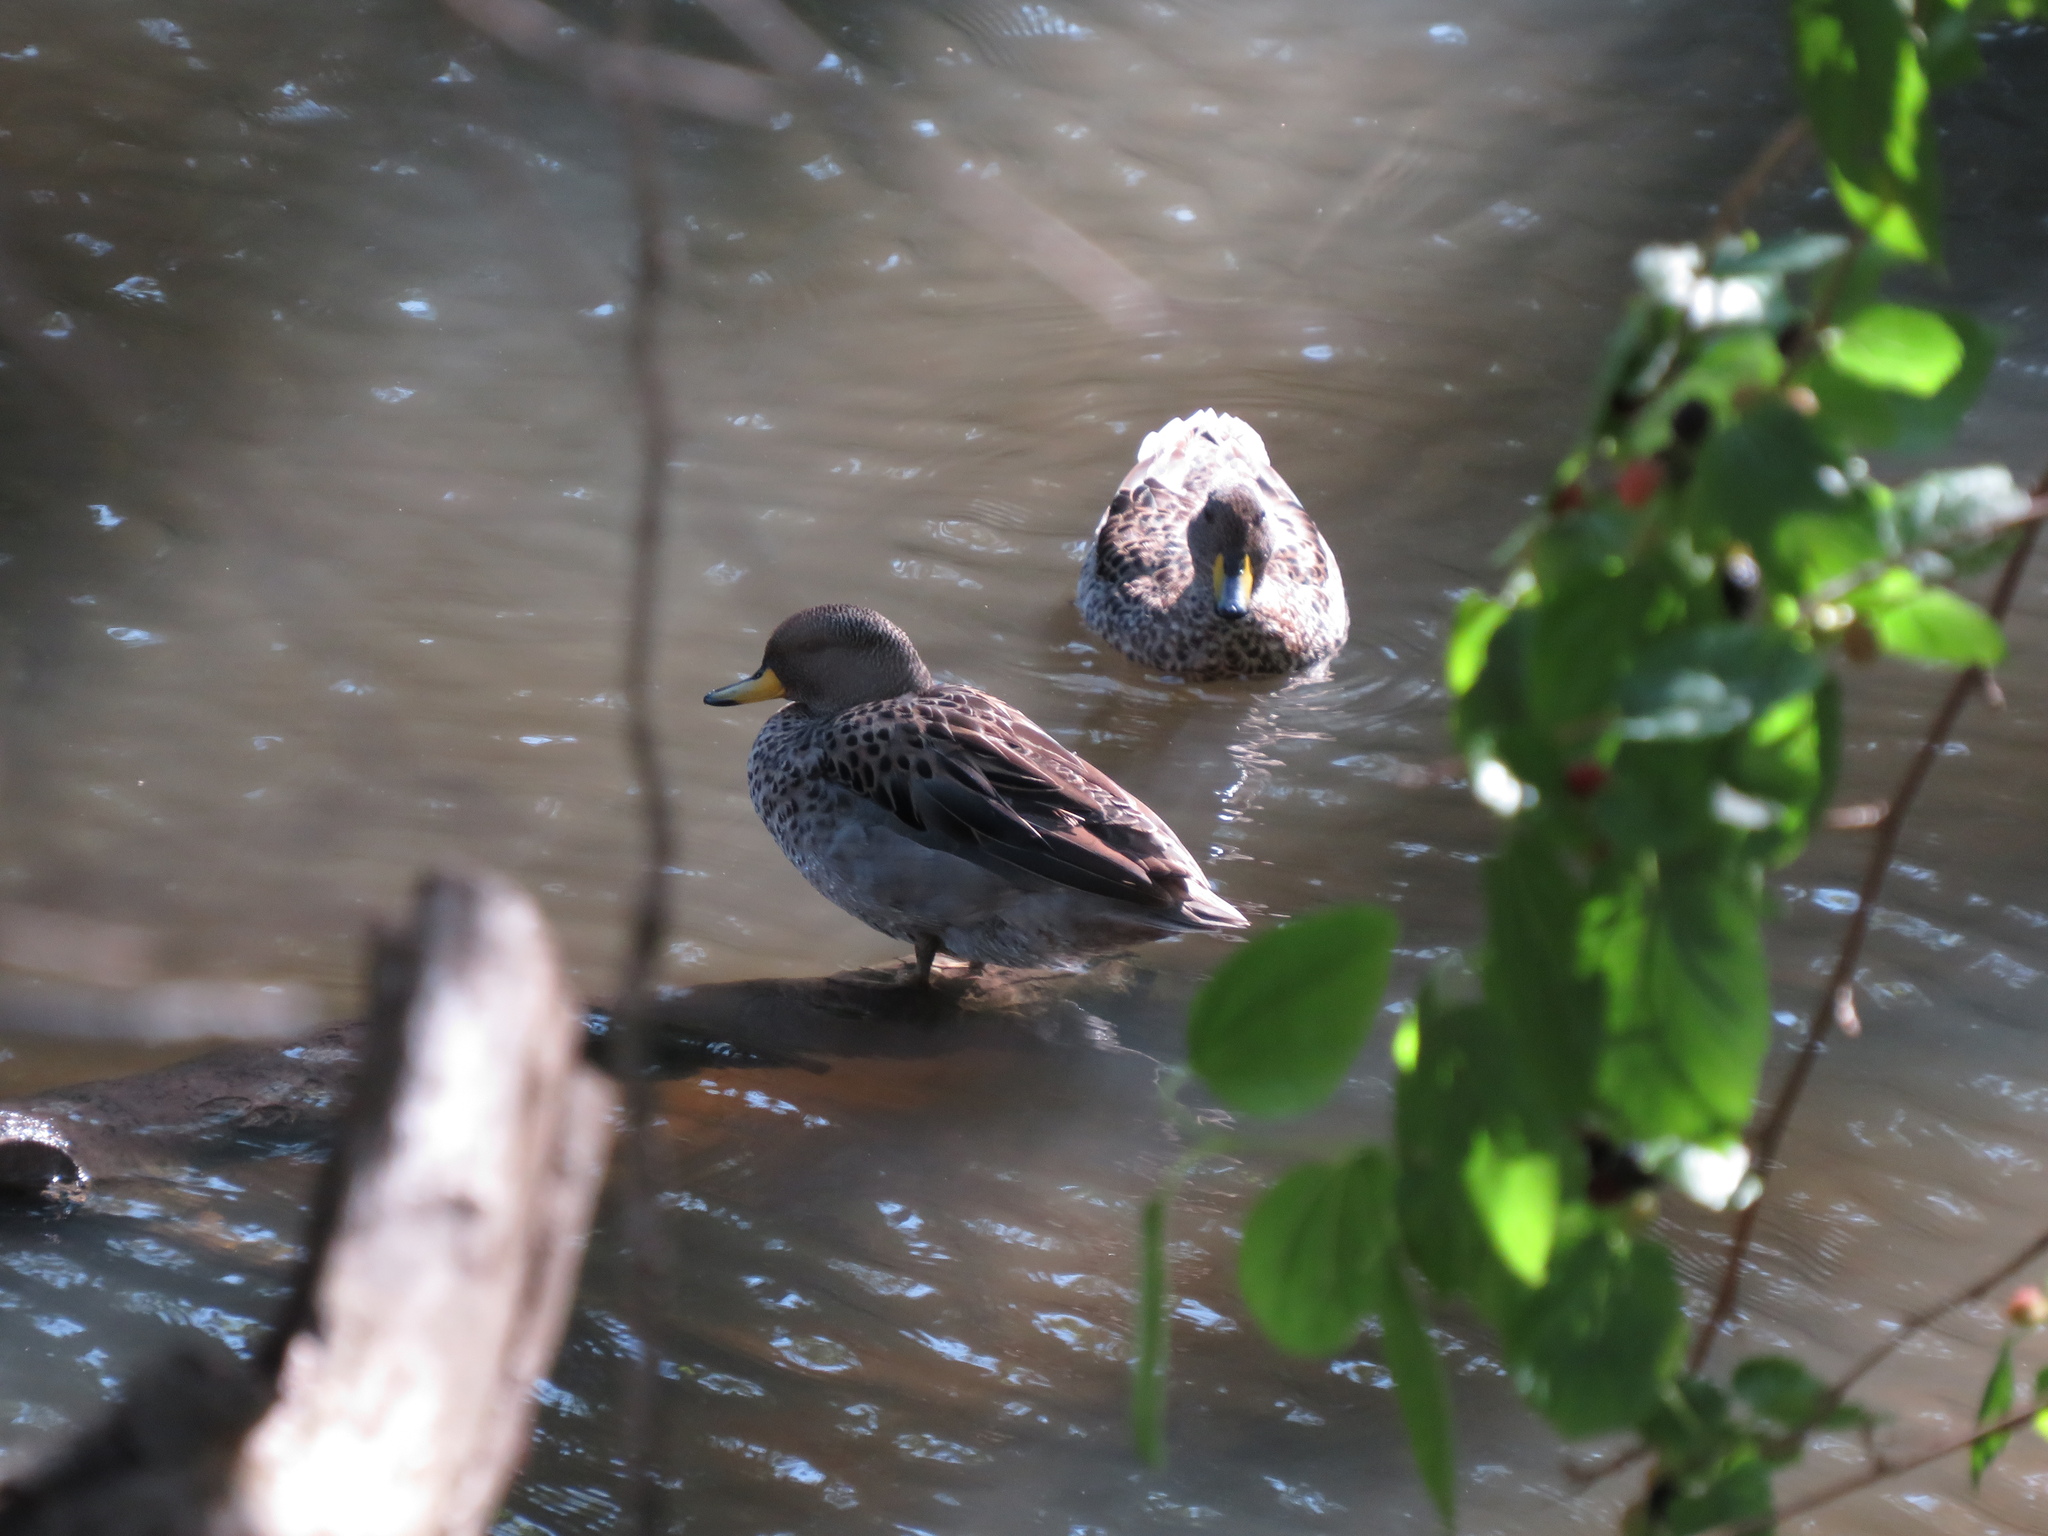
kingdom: Animalia
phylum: Chordata
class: Aves
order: Anseriformes
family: Anatidae
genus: Anas
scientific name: Anas flavirostris
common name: Yellow-billed teal
